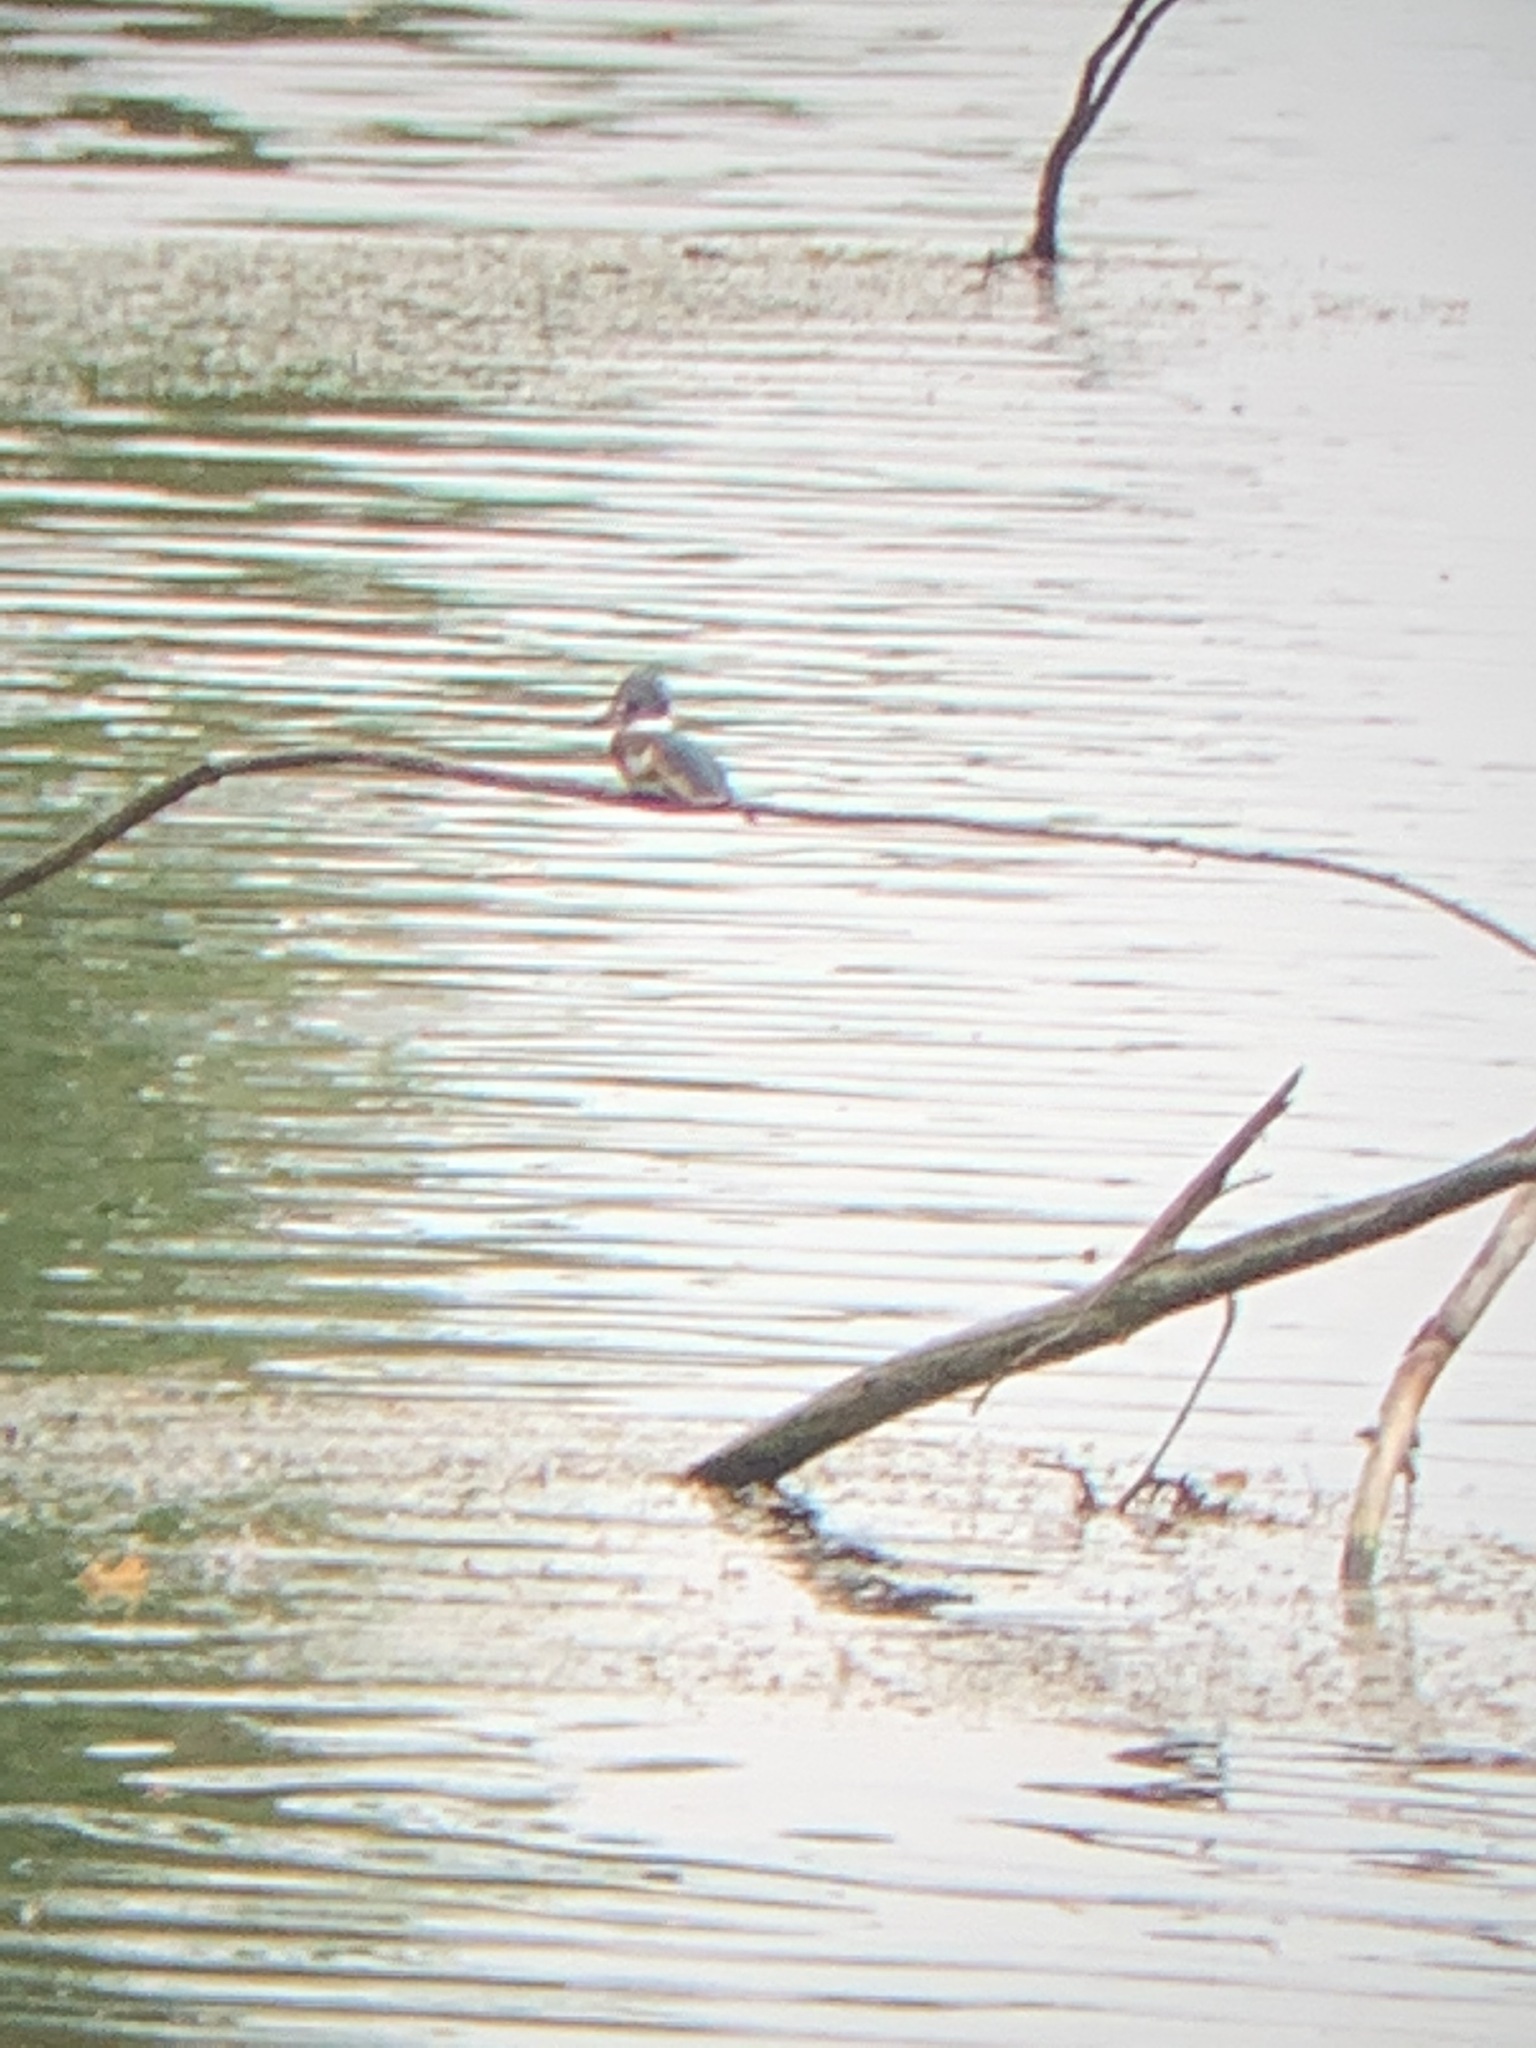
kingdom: Animalia
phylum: Chordata
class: Aves
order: Coraciiformes
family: Alcedinidae
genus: Megaceryle
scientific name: Megaceryle alcyon
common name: Belted kingfisher
